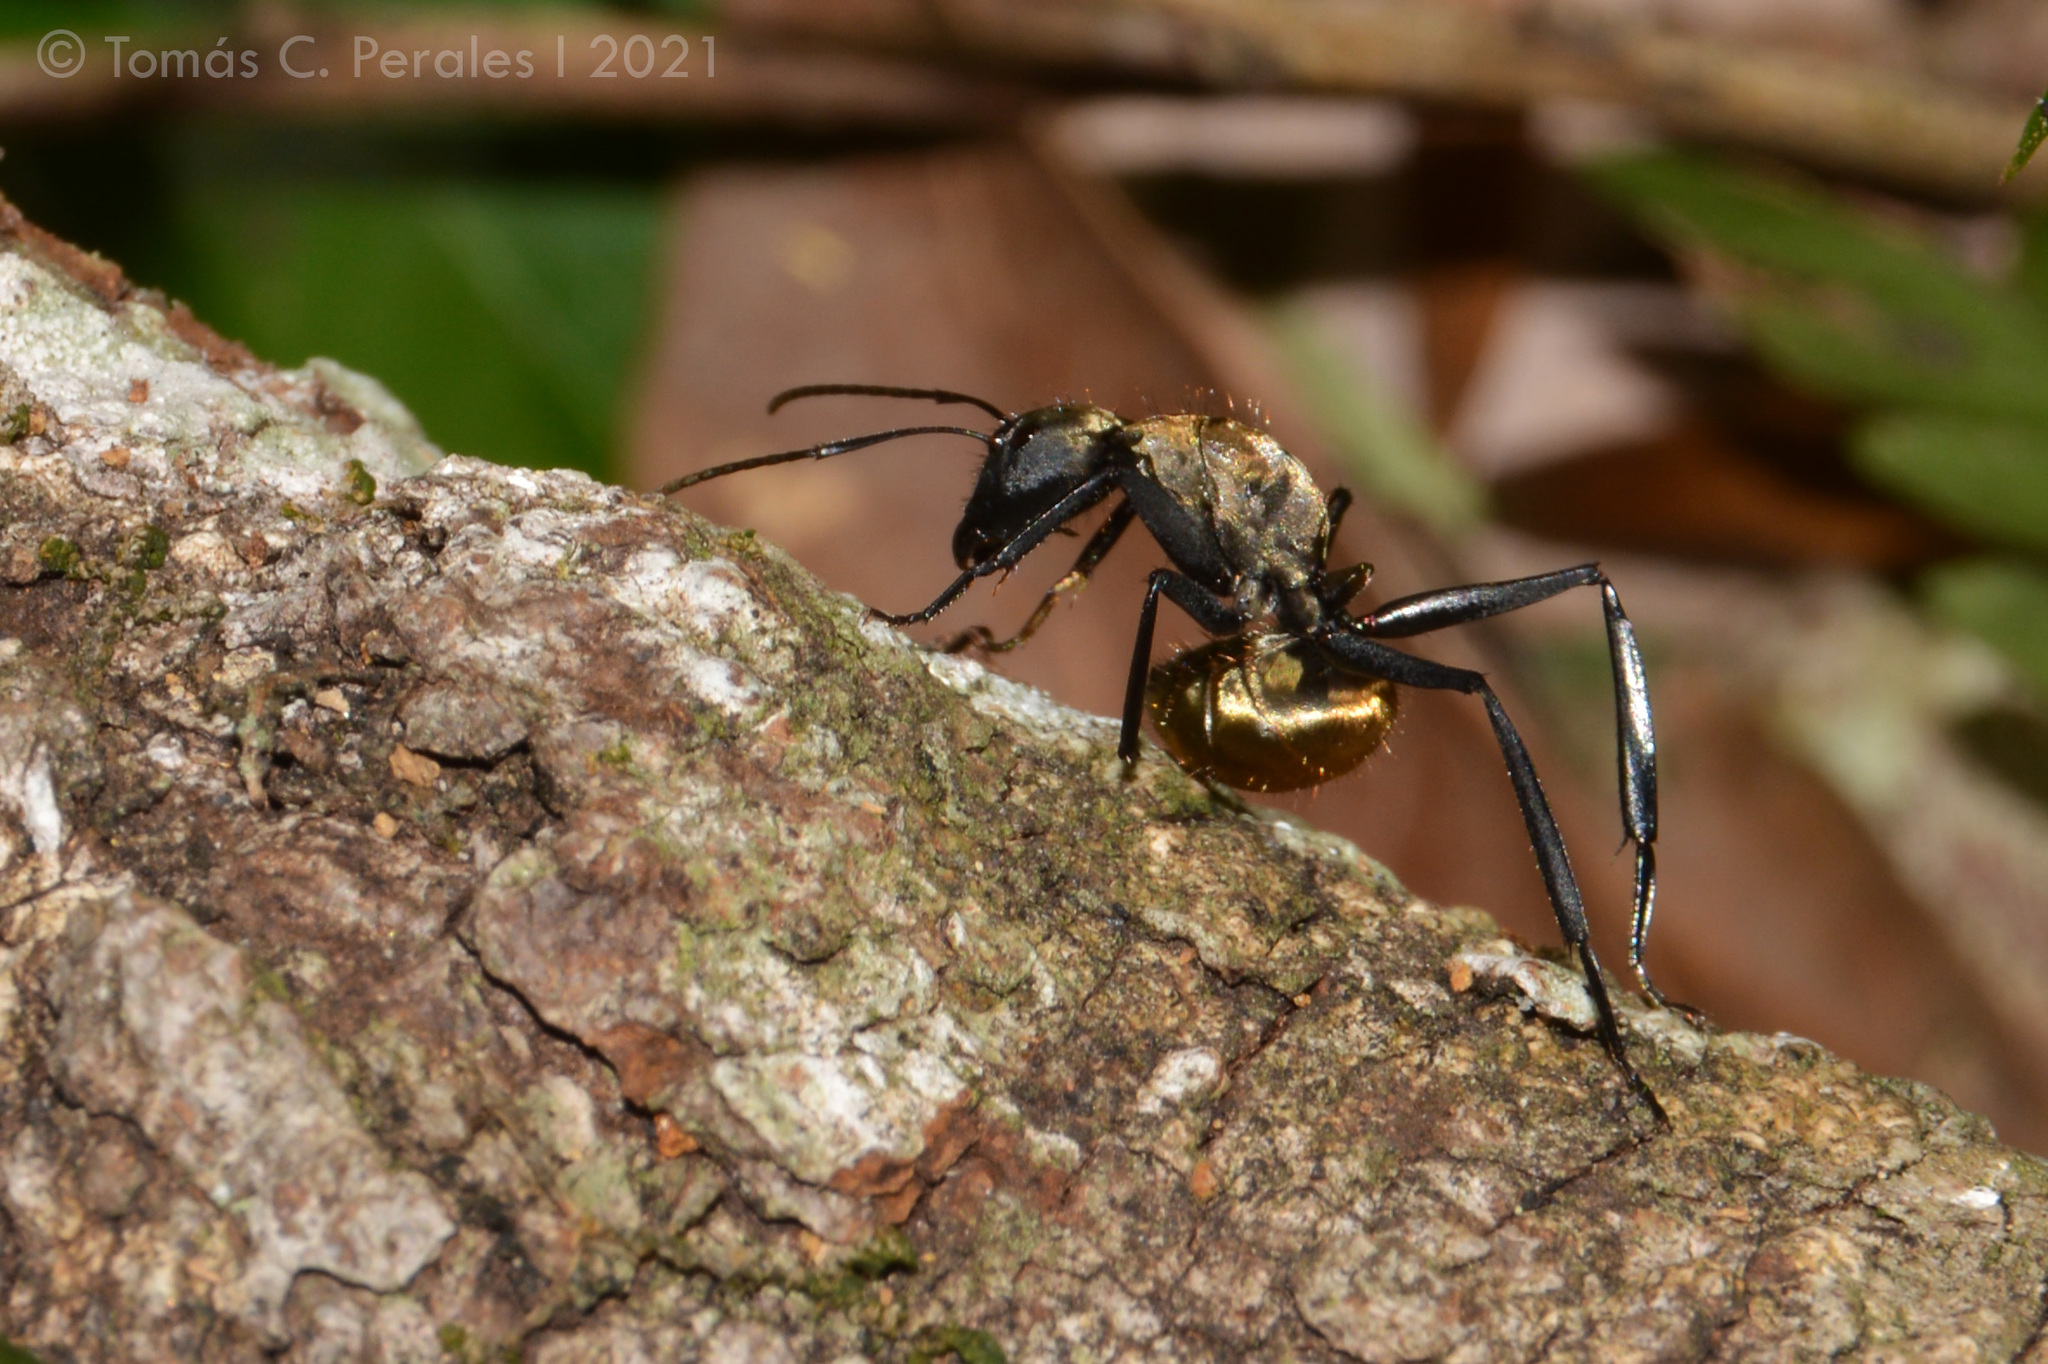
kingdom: Animalia
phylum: Arthropoda
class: Insecta
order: Hymenoptera
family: Formicidae
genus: Camponotus
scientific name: Camponotus sericeiventris
